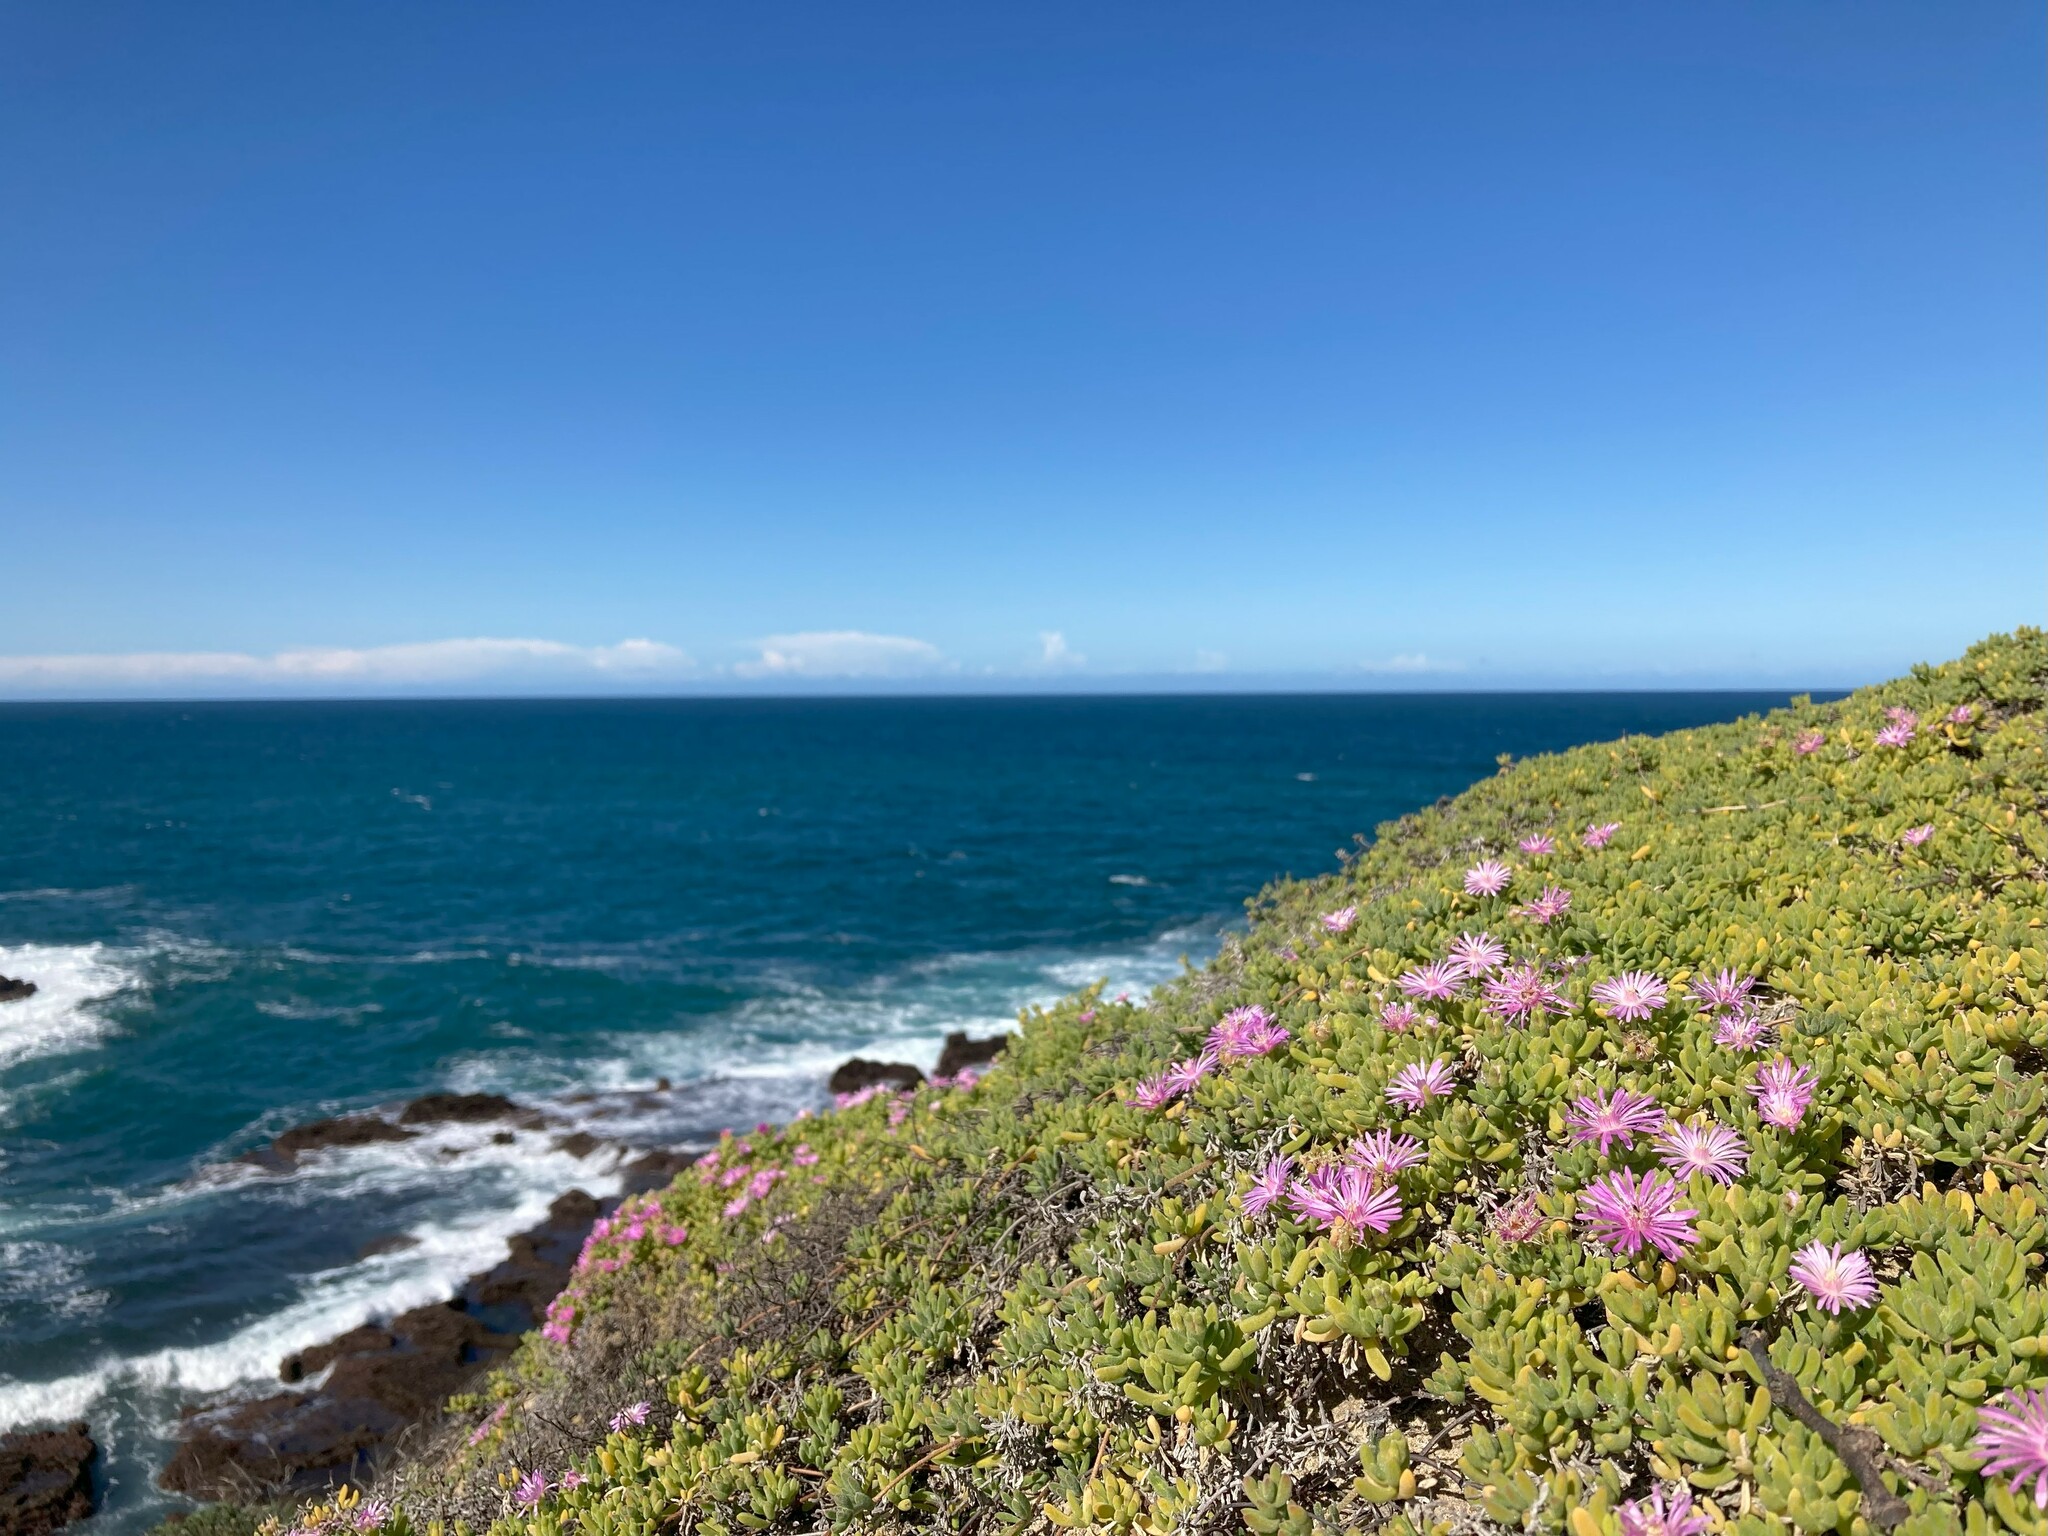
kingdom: Plantae
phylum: Tracheophyta
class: Magnoliopsida
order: Caryophyllales
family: Aizoaceae
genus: Drosanthemum
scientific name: Drosanthemum candens
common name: Rodondo-creeper
